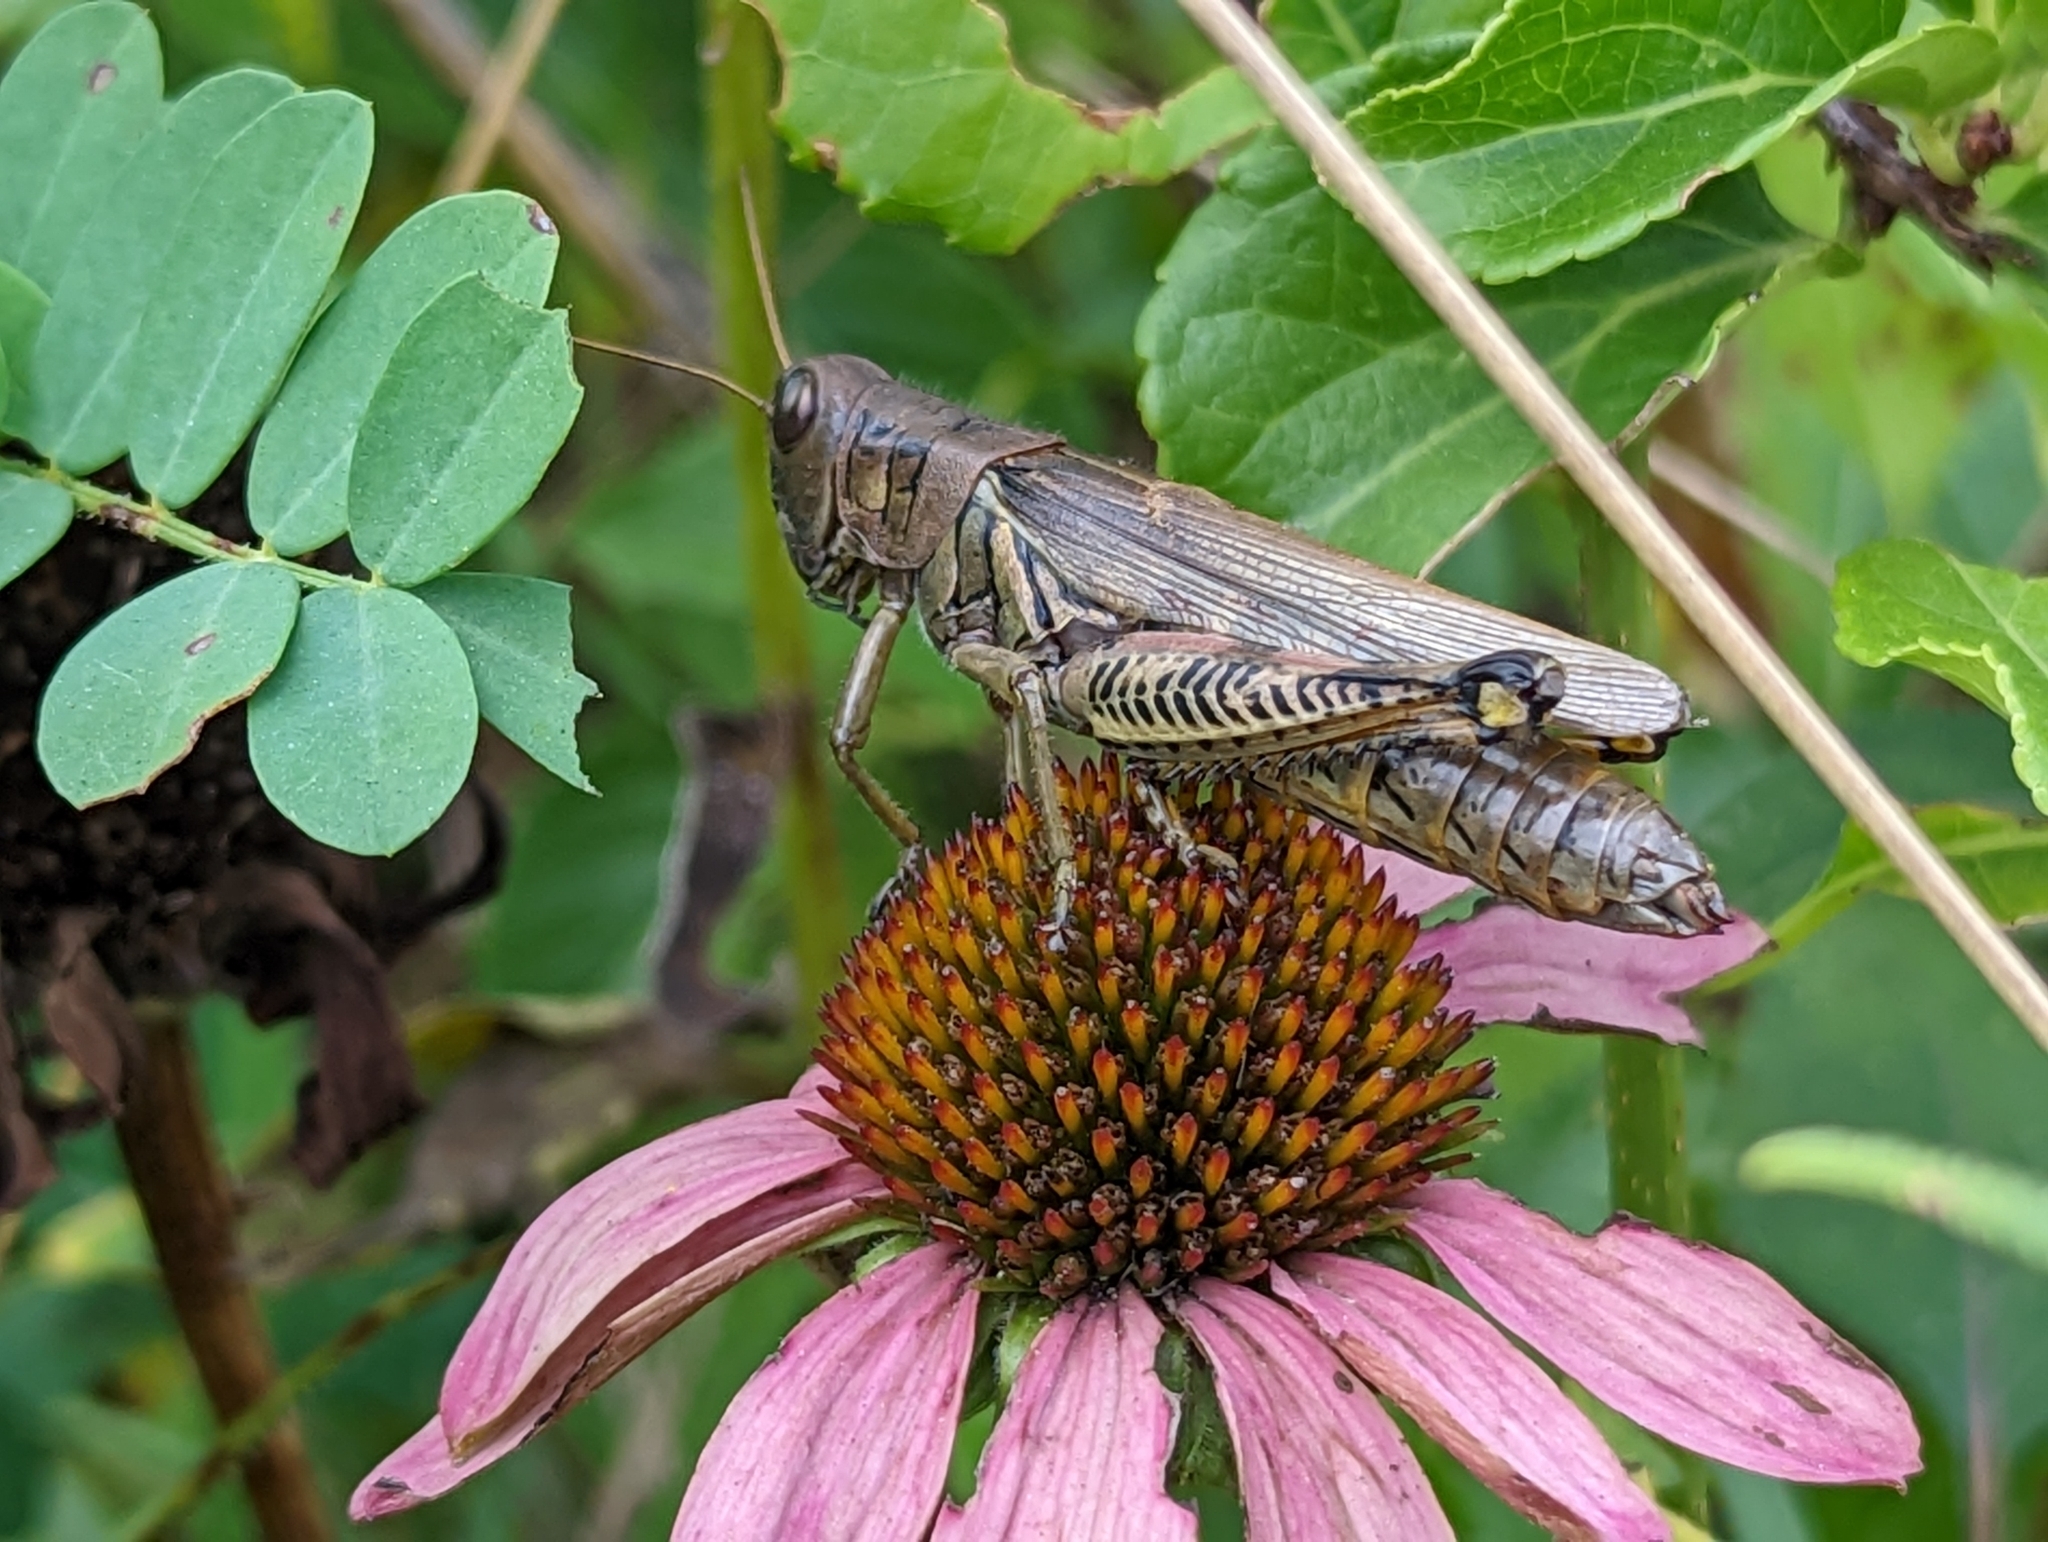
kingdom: Animalia
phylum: Arthropoda
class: Insecta
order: Orthoptera
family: Acrididae
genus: Melanoplus
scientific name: Melanoplus differentialis
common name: Differential grasshopper
